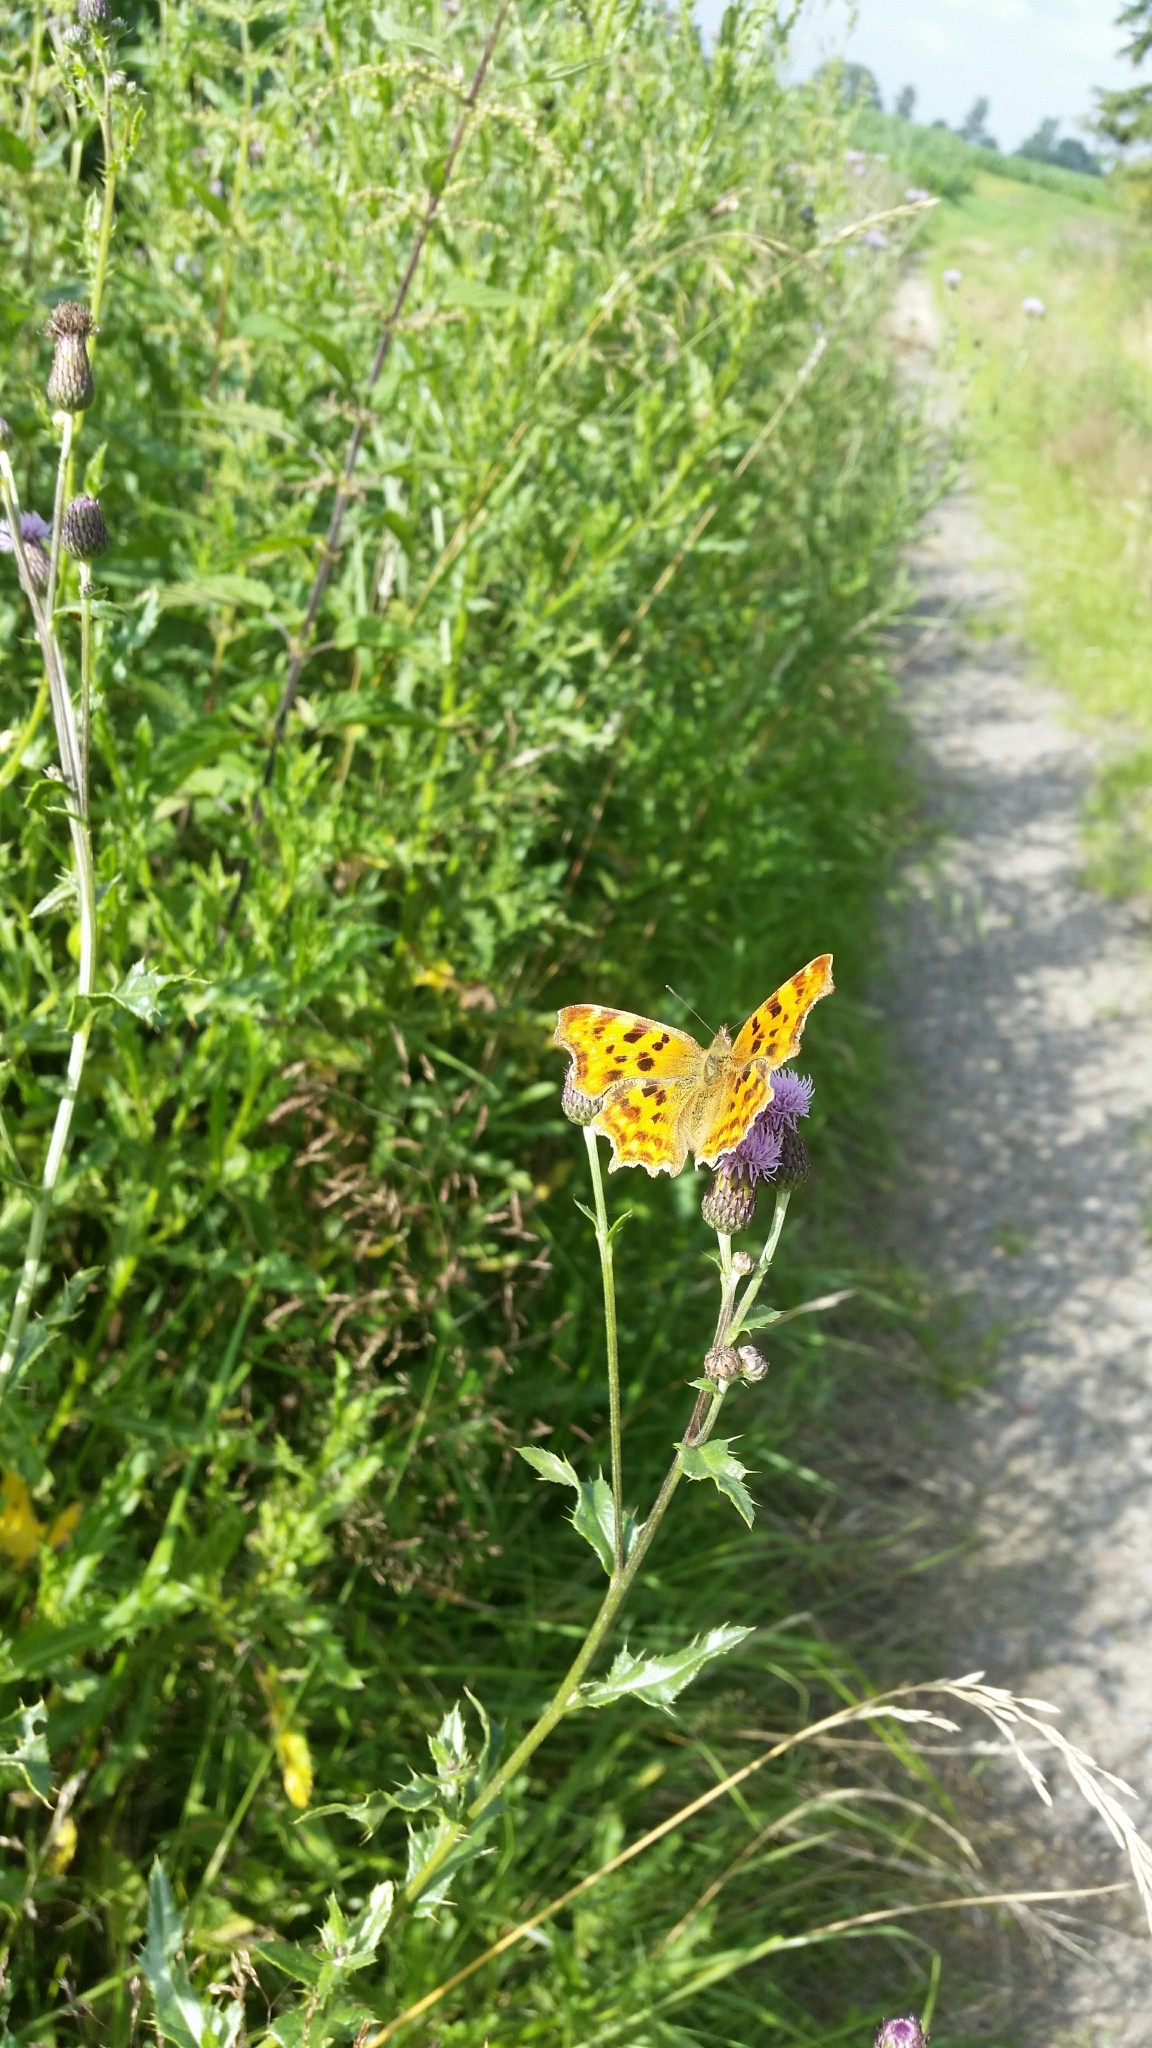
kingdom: Animalia
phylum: Arthropoda
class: Insecta
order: Lepidoptera
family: Nymphalidae
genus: Polygonia
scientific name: Polygonia c-album
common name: Comma
